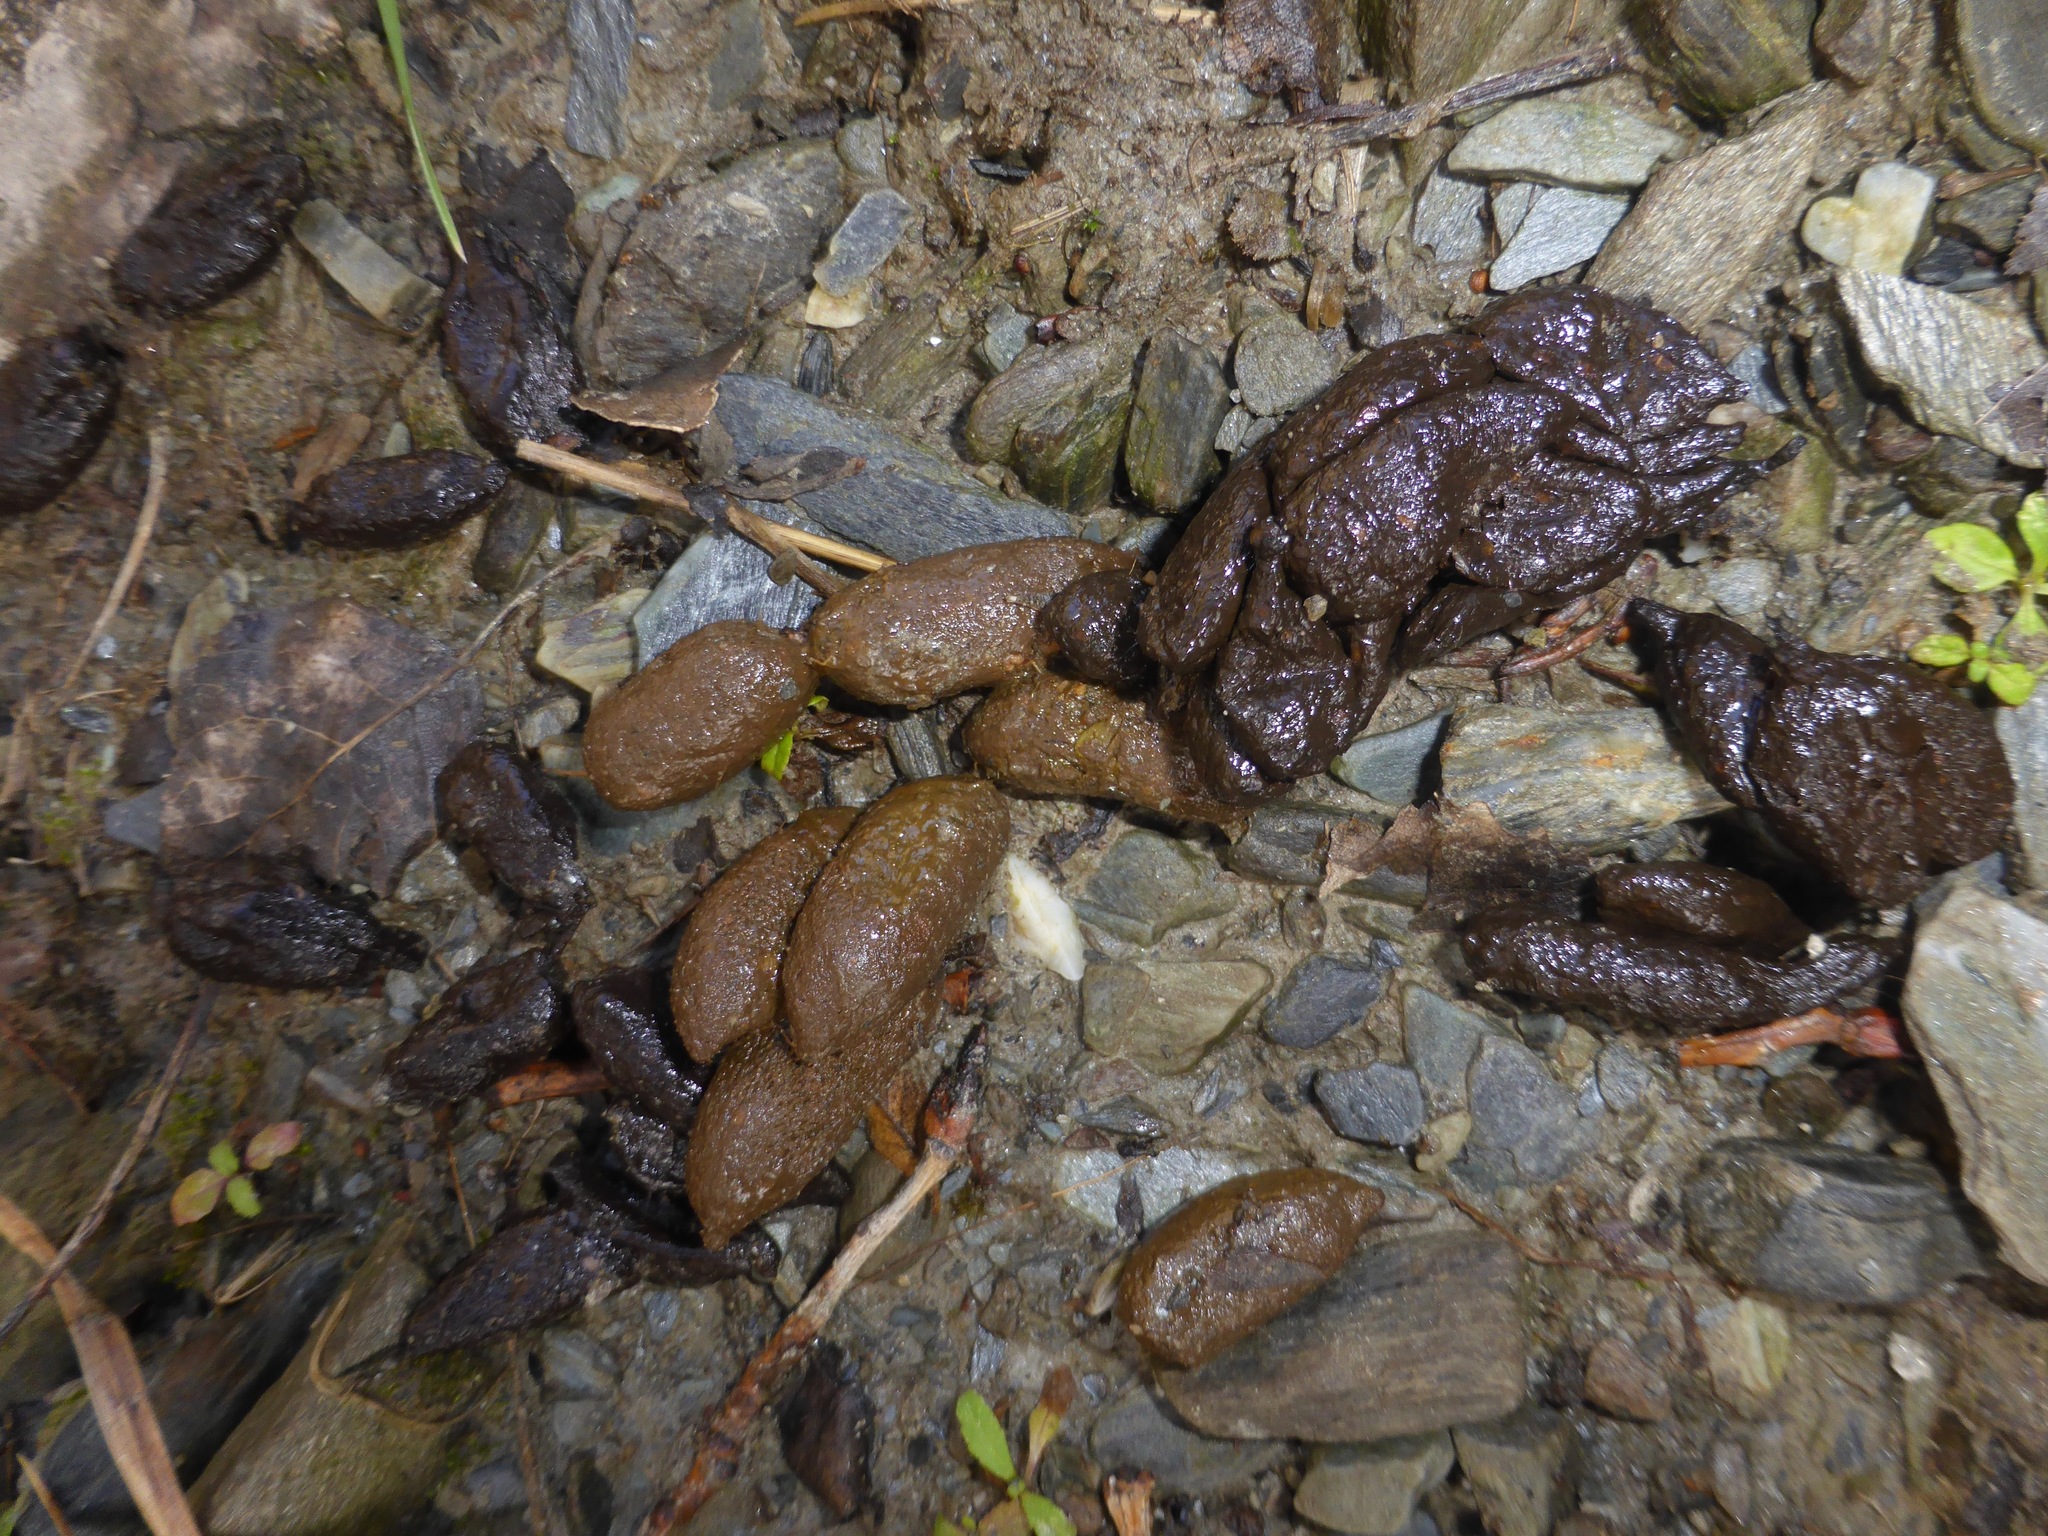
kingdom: Animalia
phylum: Chordata
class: Mammalia
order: Diprotodontia
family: Phalangeridae
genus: Trichosurus
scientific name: Trichosurus vulpecula
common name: Common brushtail
